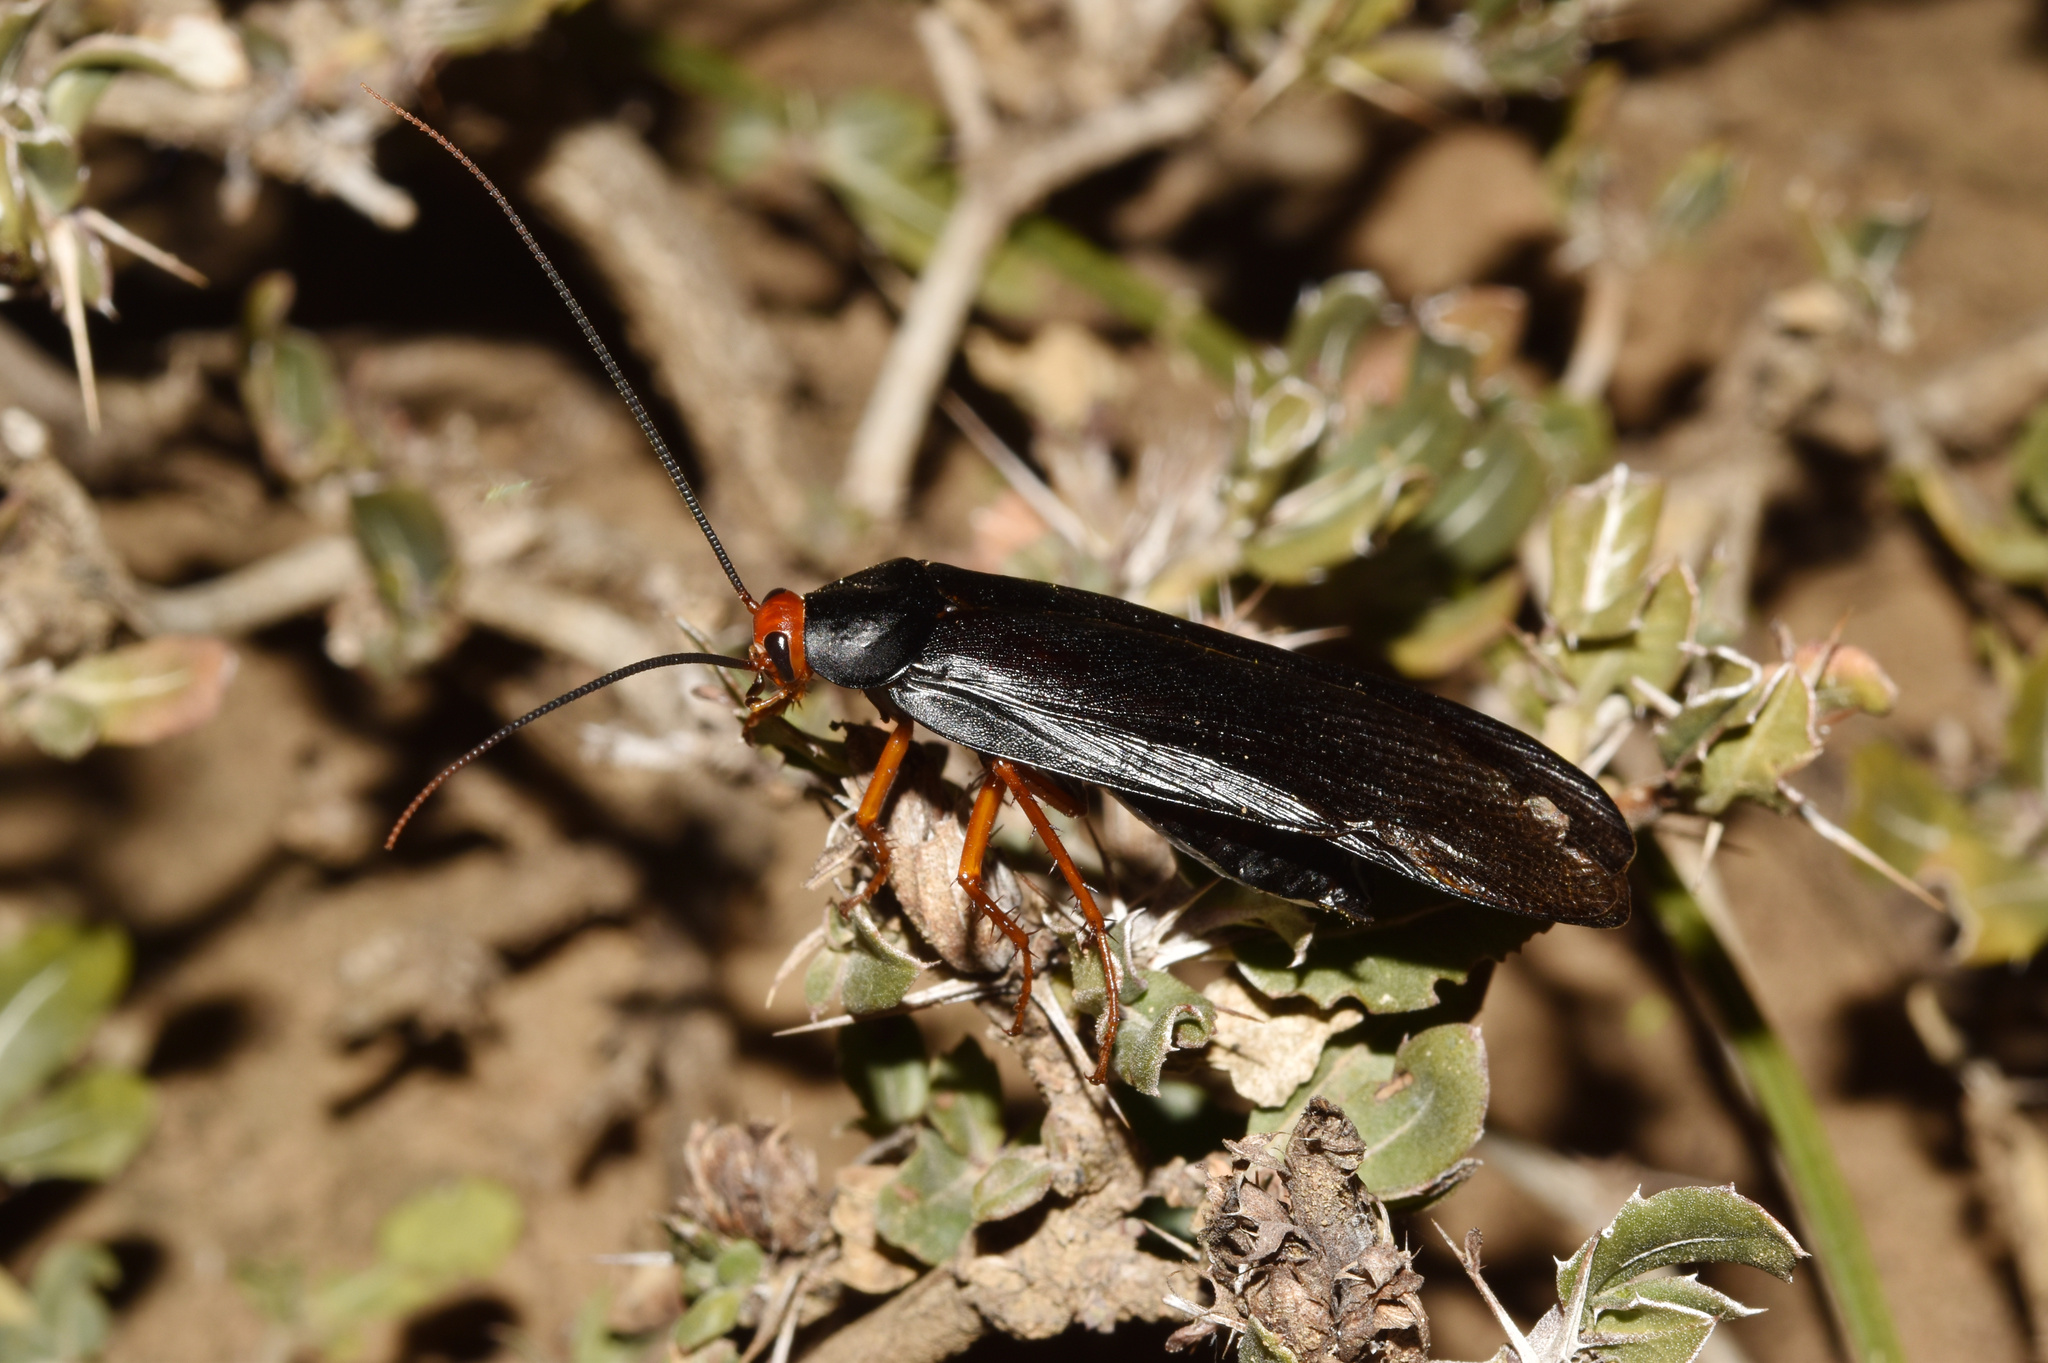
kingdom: Animalia
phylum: Arthropoda
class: Insecta
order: Blattodea
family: Blattidae
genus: Deropeltis
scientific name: Deropeltis erythrocephala
